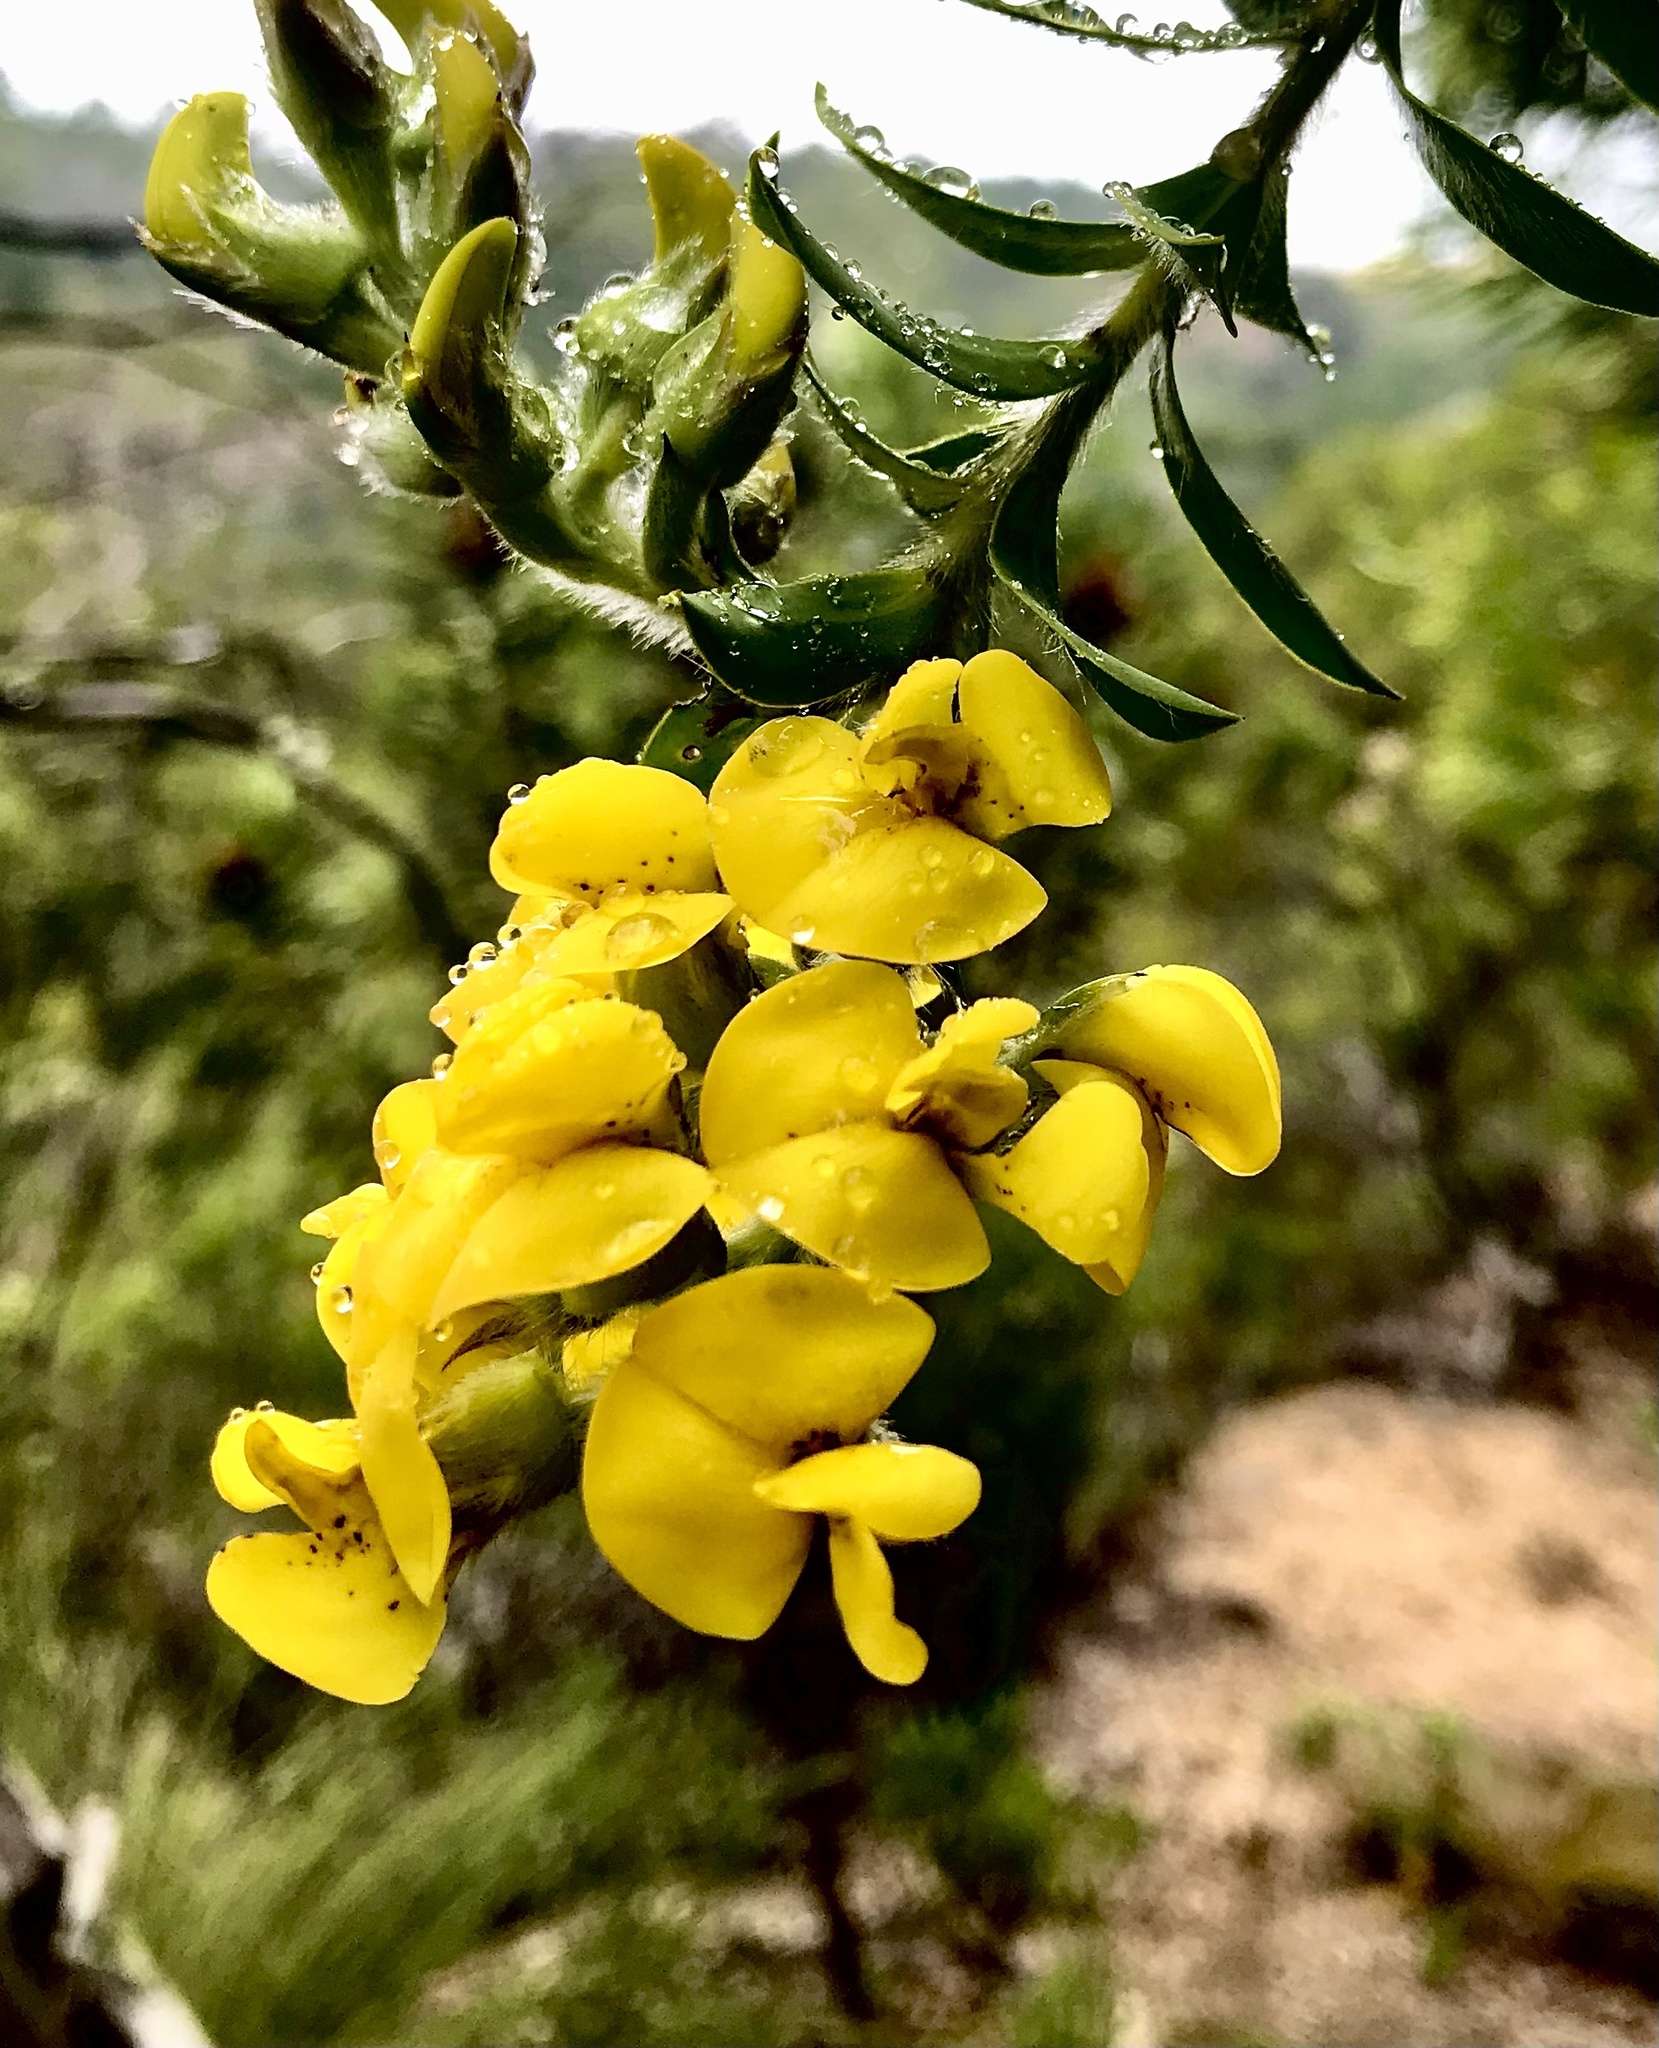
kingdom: Plantae
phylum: Tracheophyta
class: Magnoliopsida
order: Fabales
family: Fabaceae
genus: Liparia
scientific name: Liparia hirsuta
